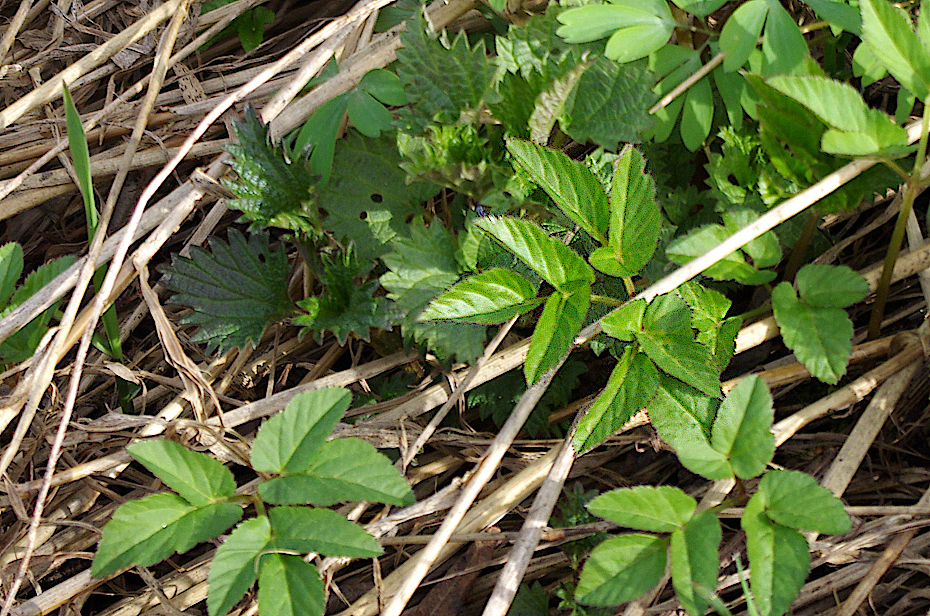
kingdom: Plantae
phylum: Tracheophyta
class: Magnoliopsida
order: Apiales
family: Apiaceae
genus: Aegopodium
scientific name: Aegopodium podagraria
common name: Ground-elder
